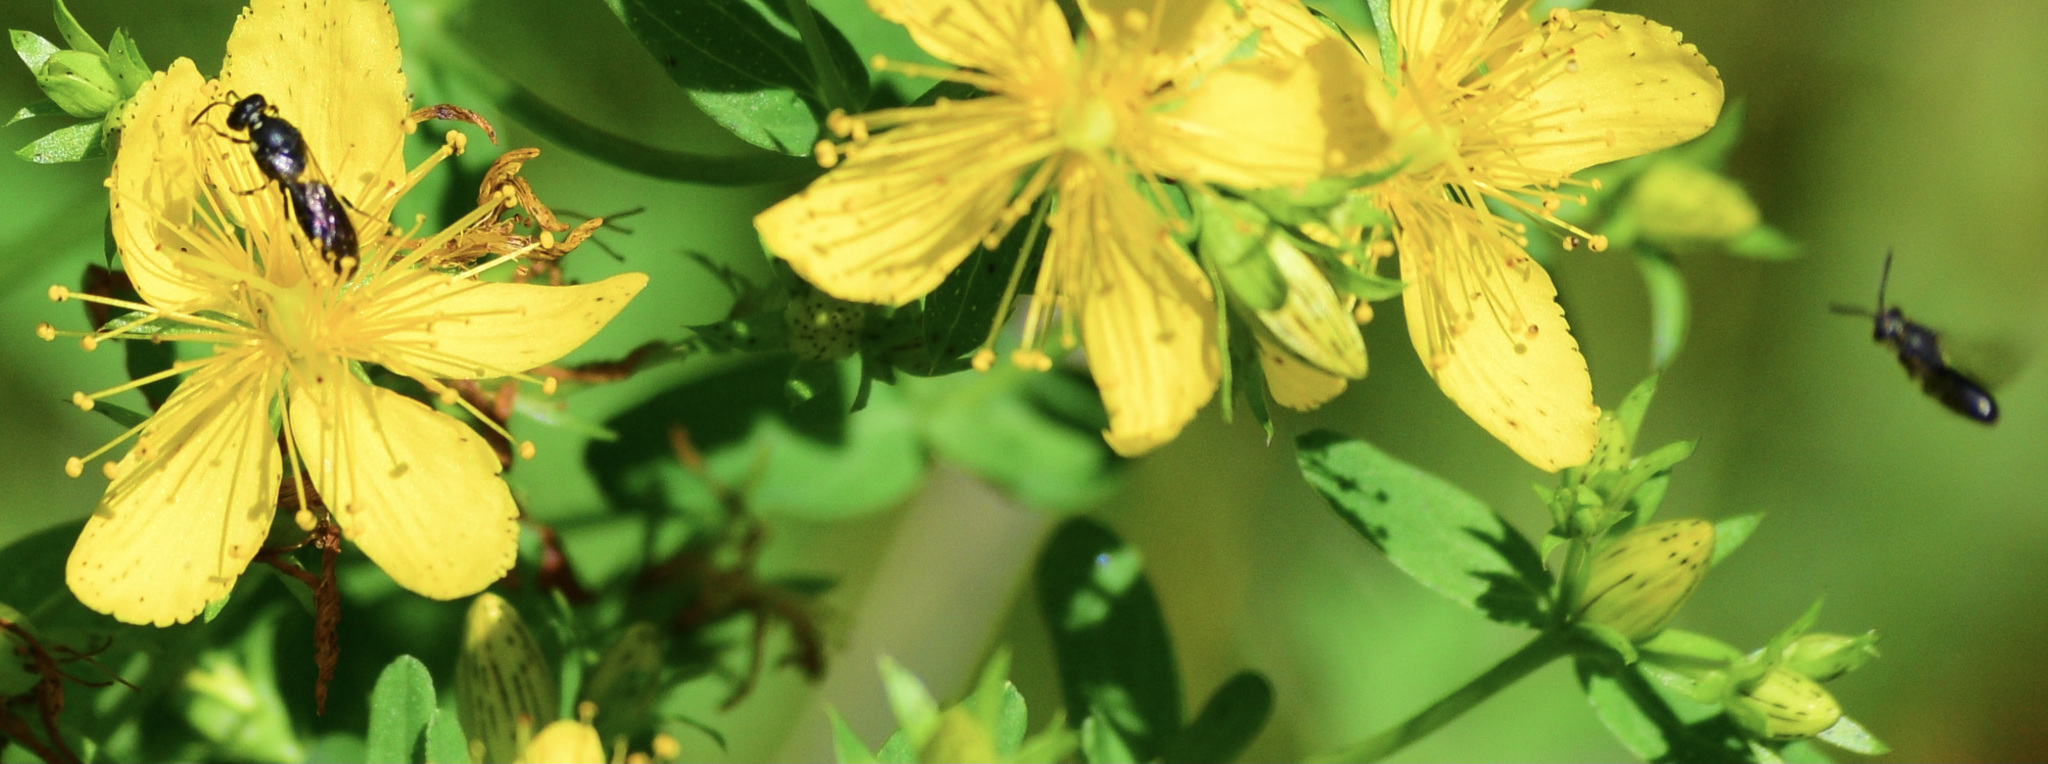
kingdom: Animalia
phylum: Arthropoda
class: Insecta
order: Hymenoptera
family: Colletidae
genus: Hylaeus
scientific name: Hylaeus modestus
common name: Yellow-faced bee
